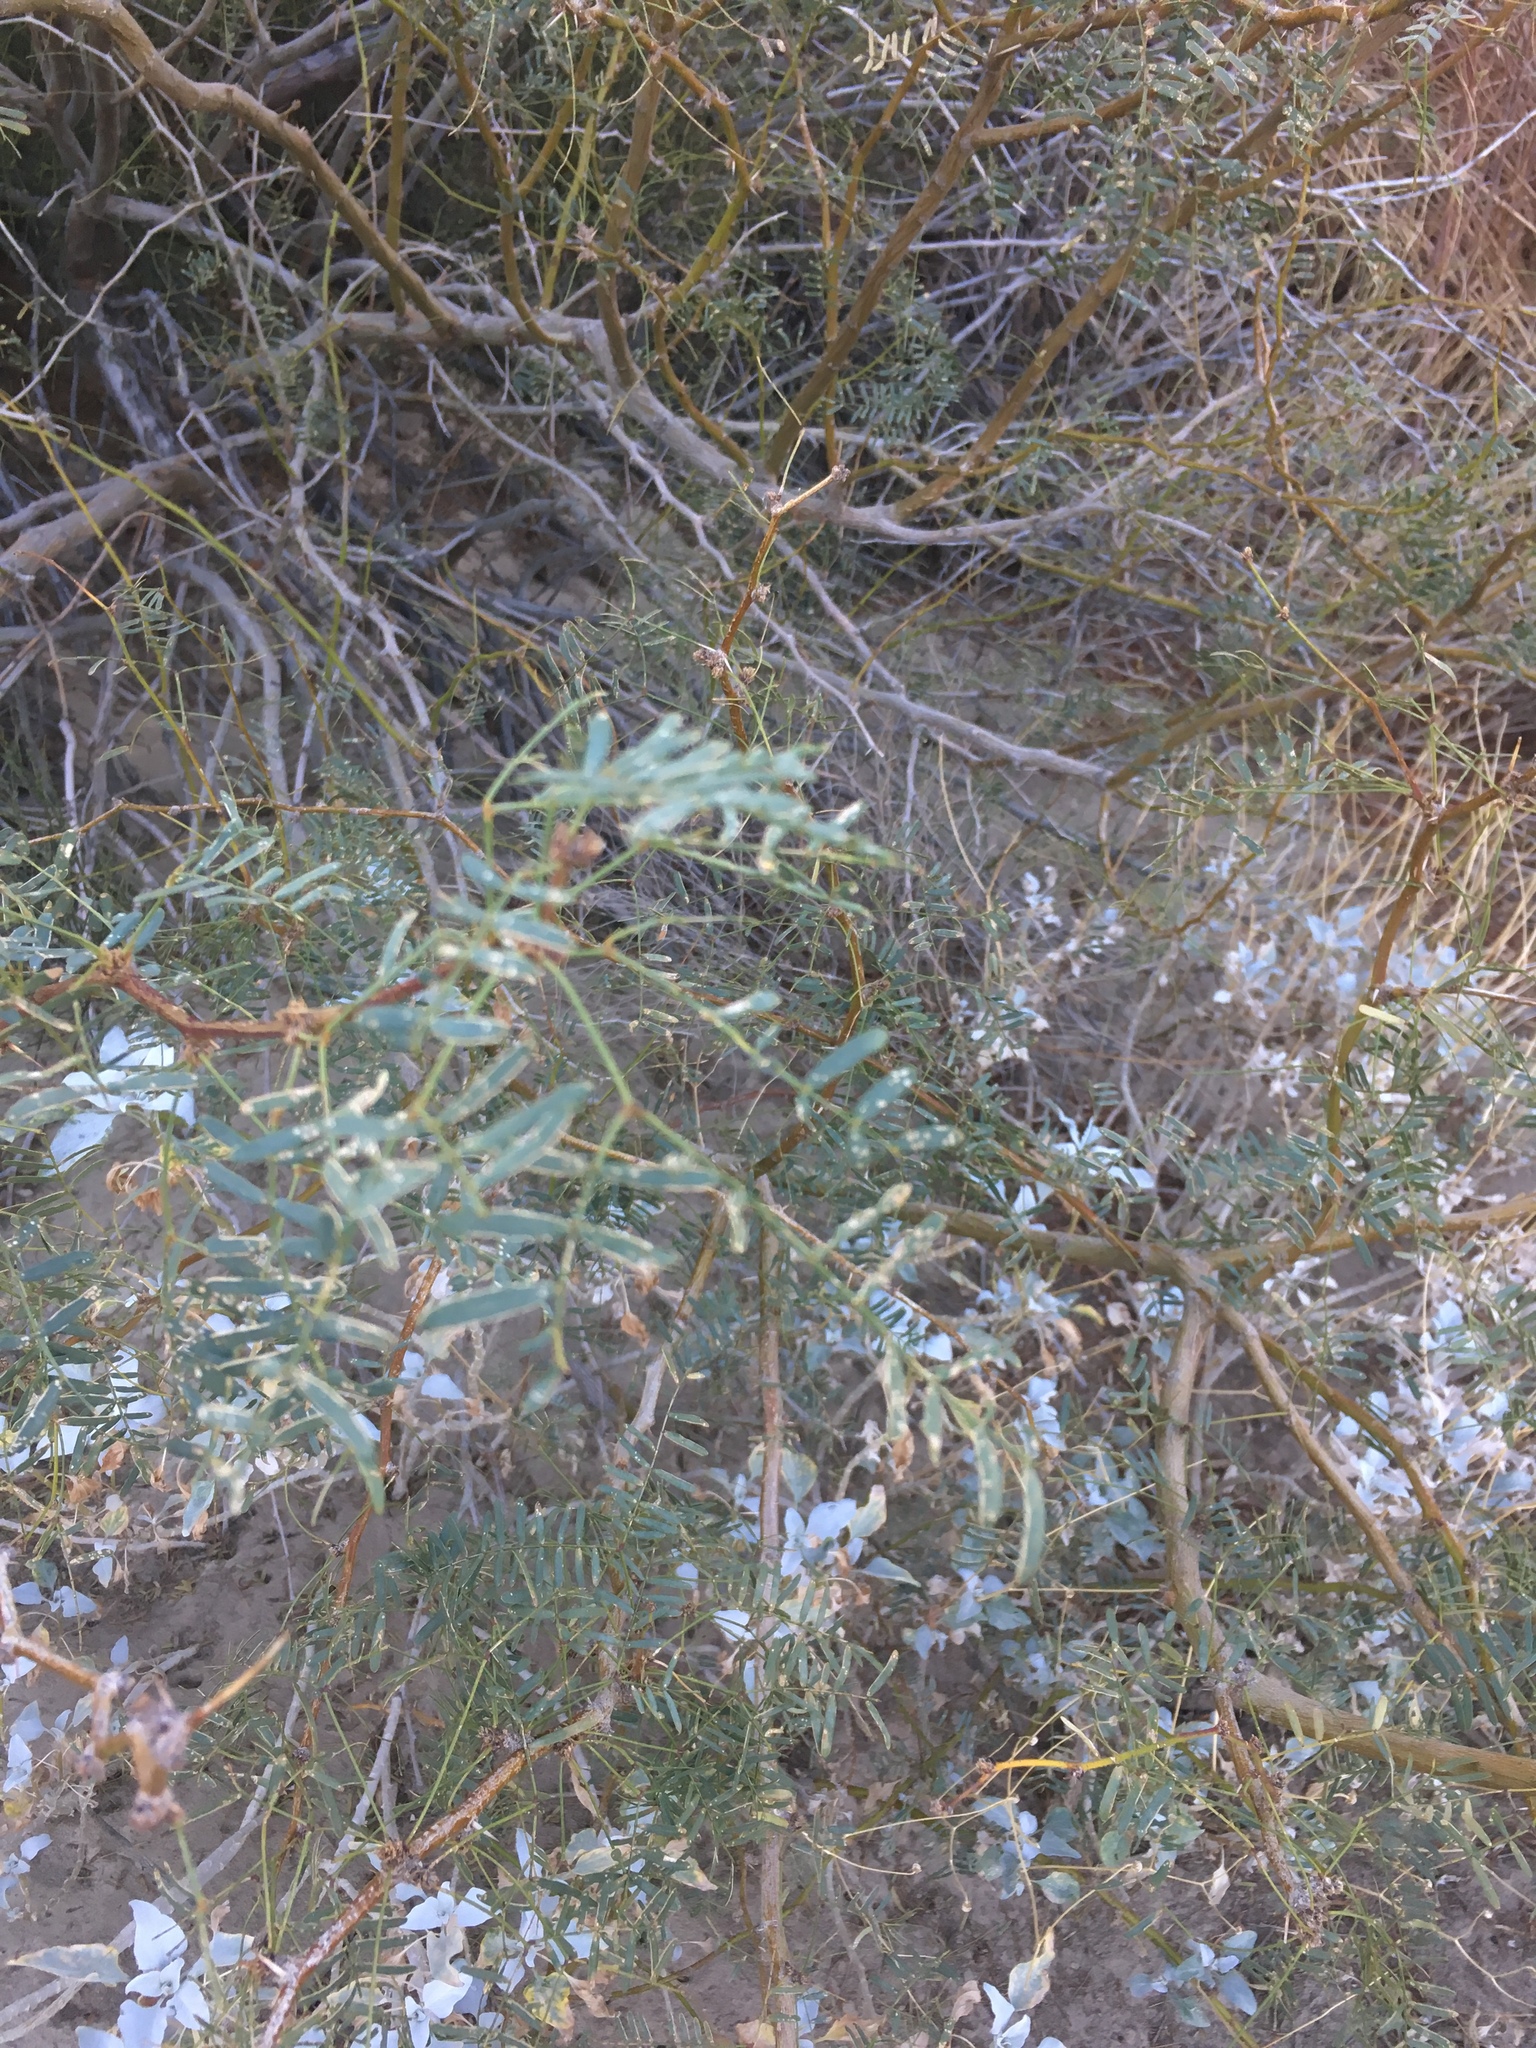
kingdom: Plantae
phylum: Tracheophyta
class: Magnoliopsida
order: Fabales
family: Fabaceae
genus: Prosopis
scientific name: Prosopis pubescens
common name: Screw-bean
